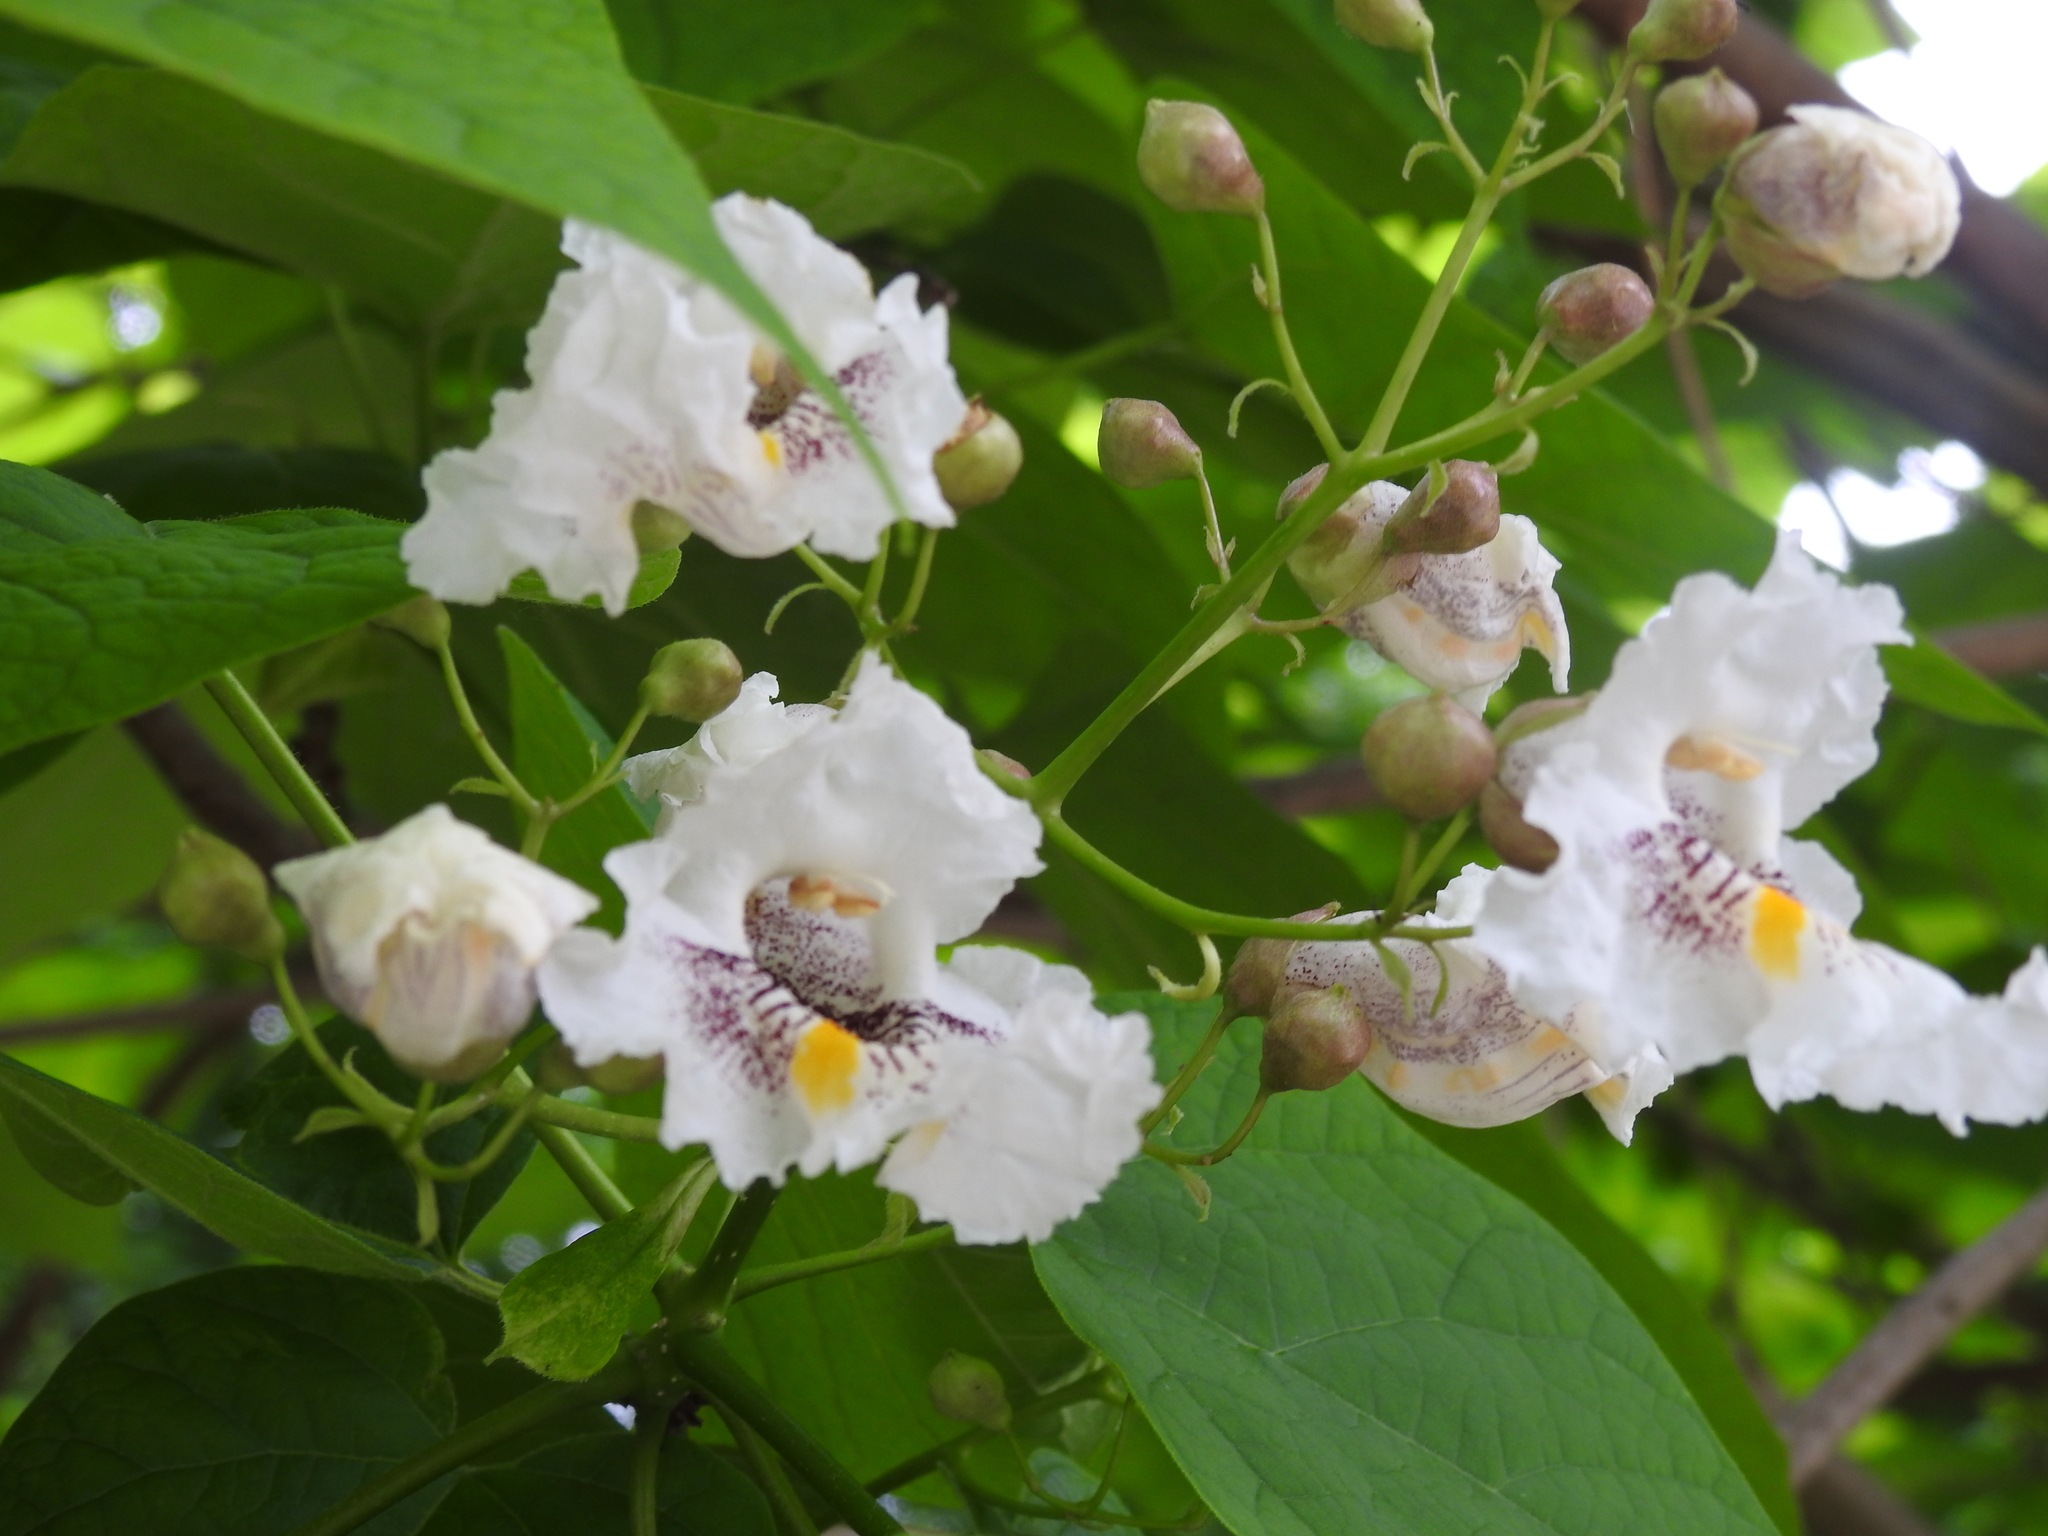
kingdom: Plantae
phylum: Tracheophyta
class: Magnoliopsida
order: Lamiales
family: Bignoniaceae
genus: Catalpa
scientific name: Catalpa speciosa
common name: Northern catalpa
